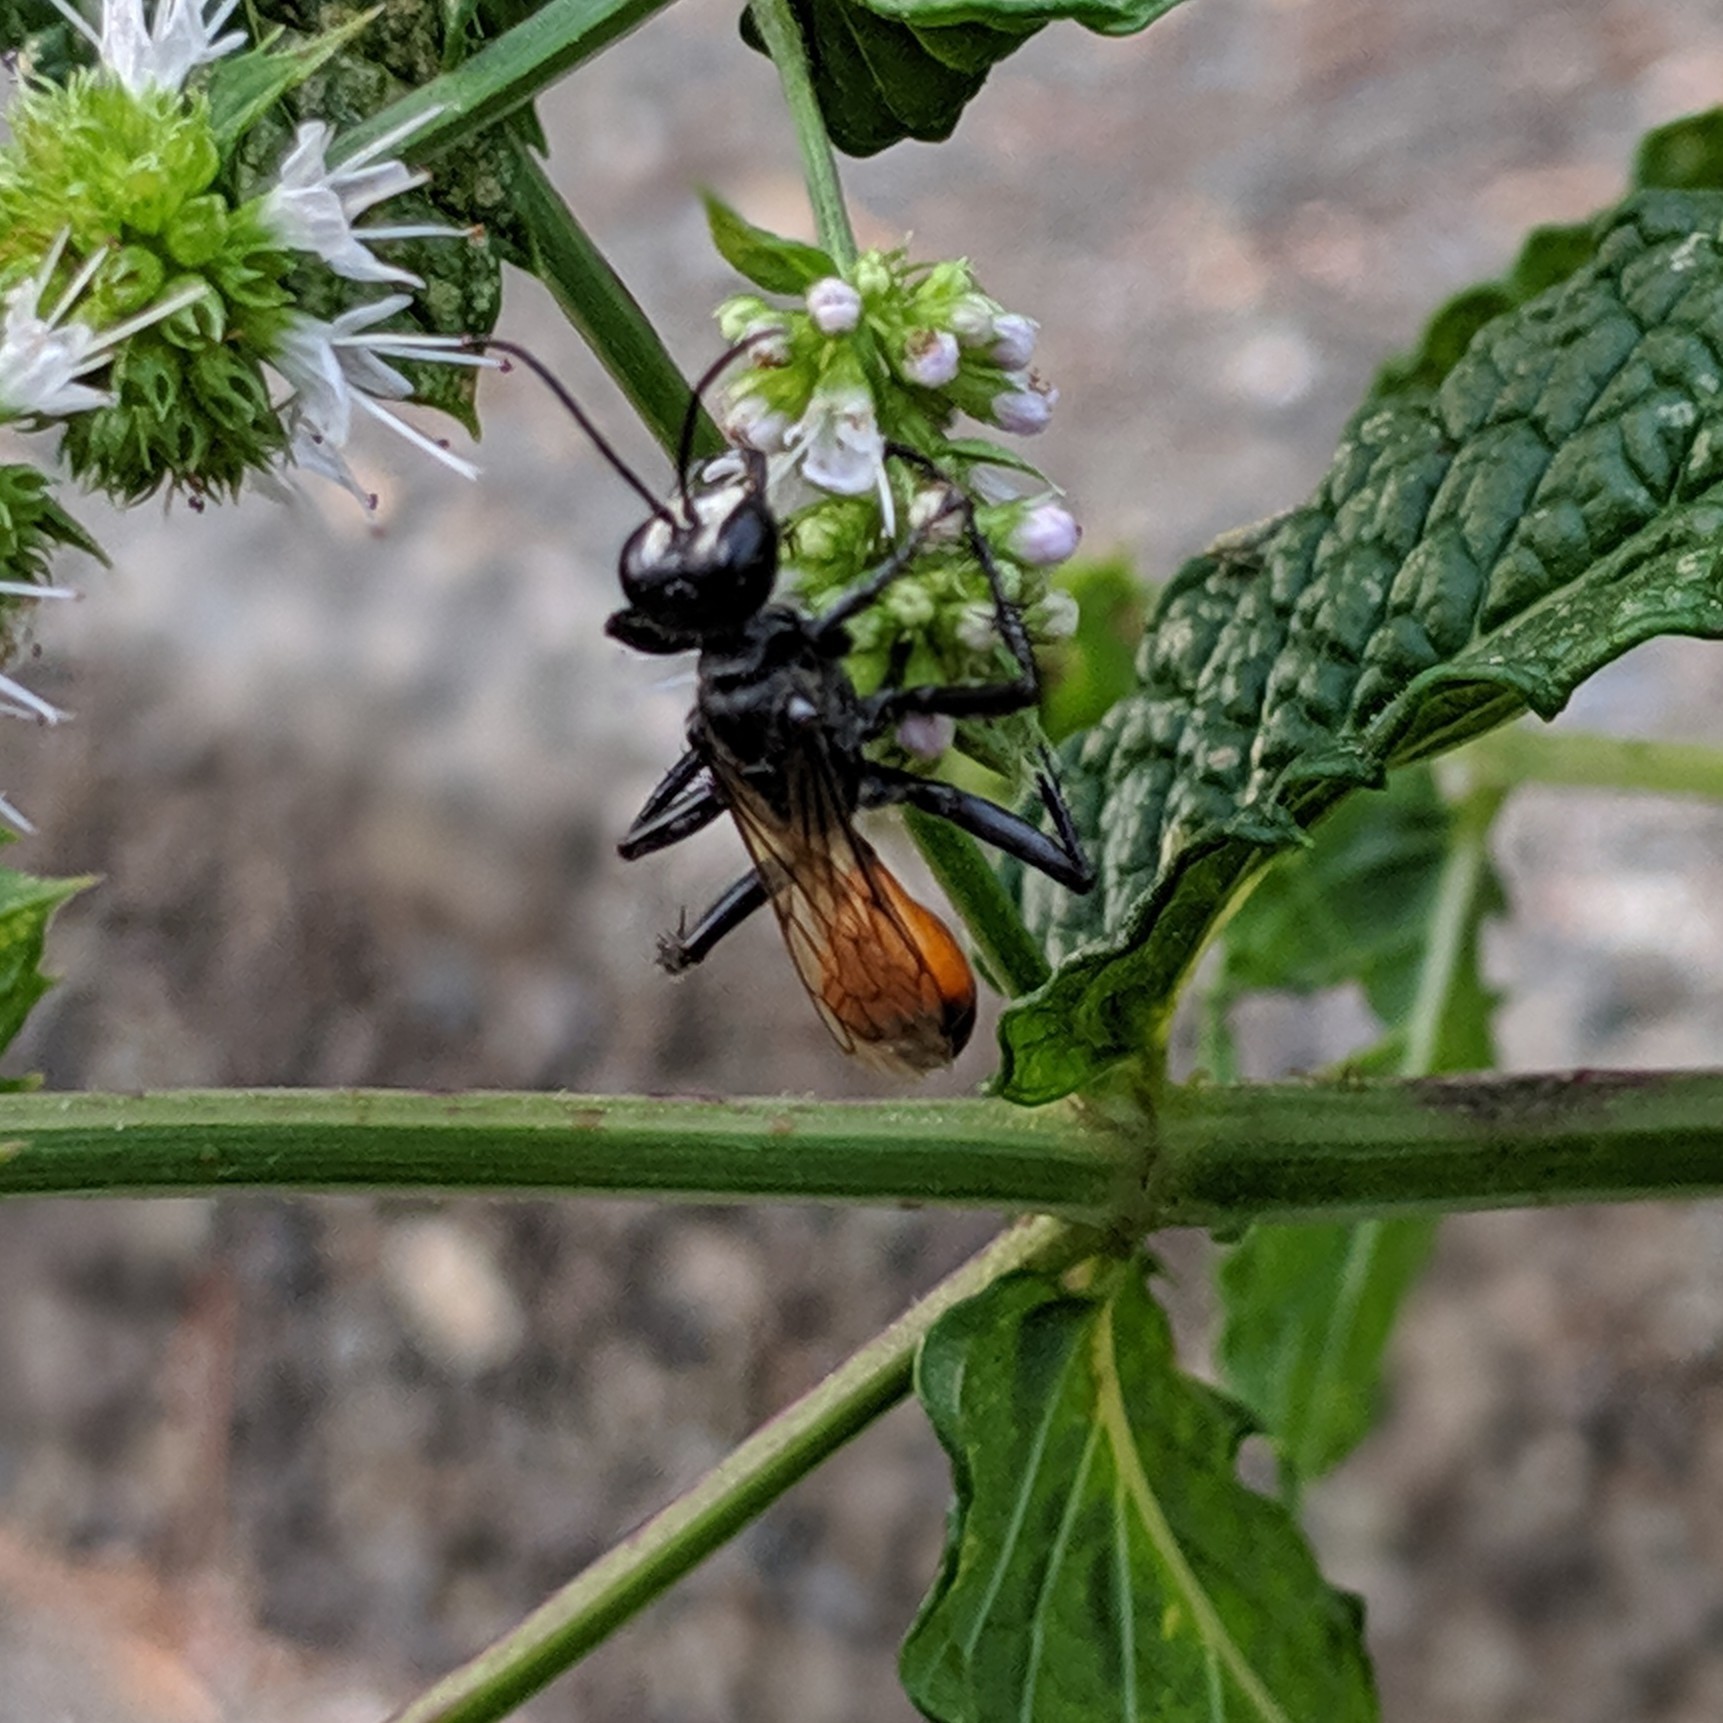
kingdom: Animalia
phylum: Arthropoda
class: Insecta
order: Hymenoptera
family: Sphecidae
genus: Prionyx
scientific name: Prionyx canadensis
